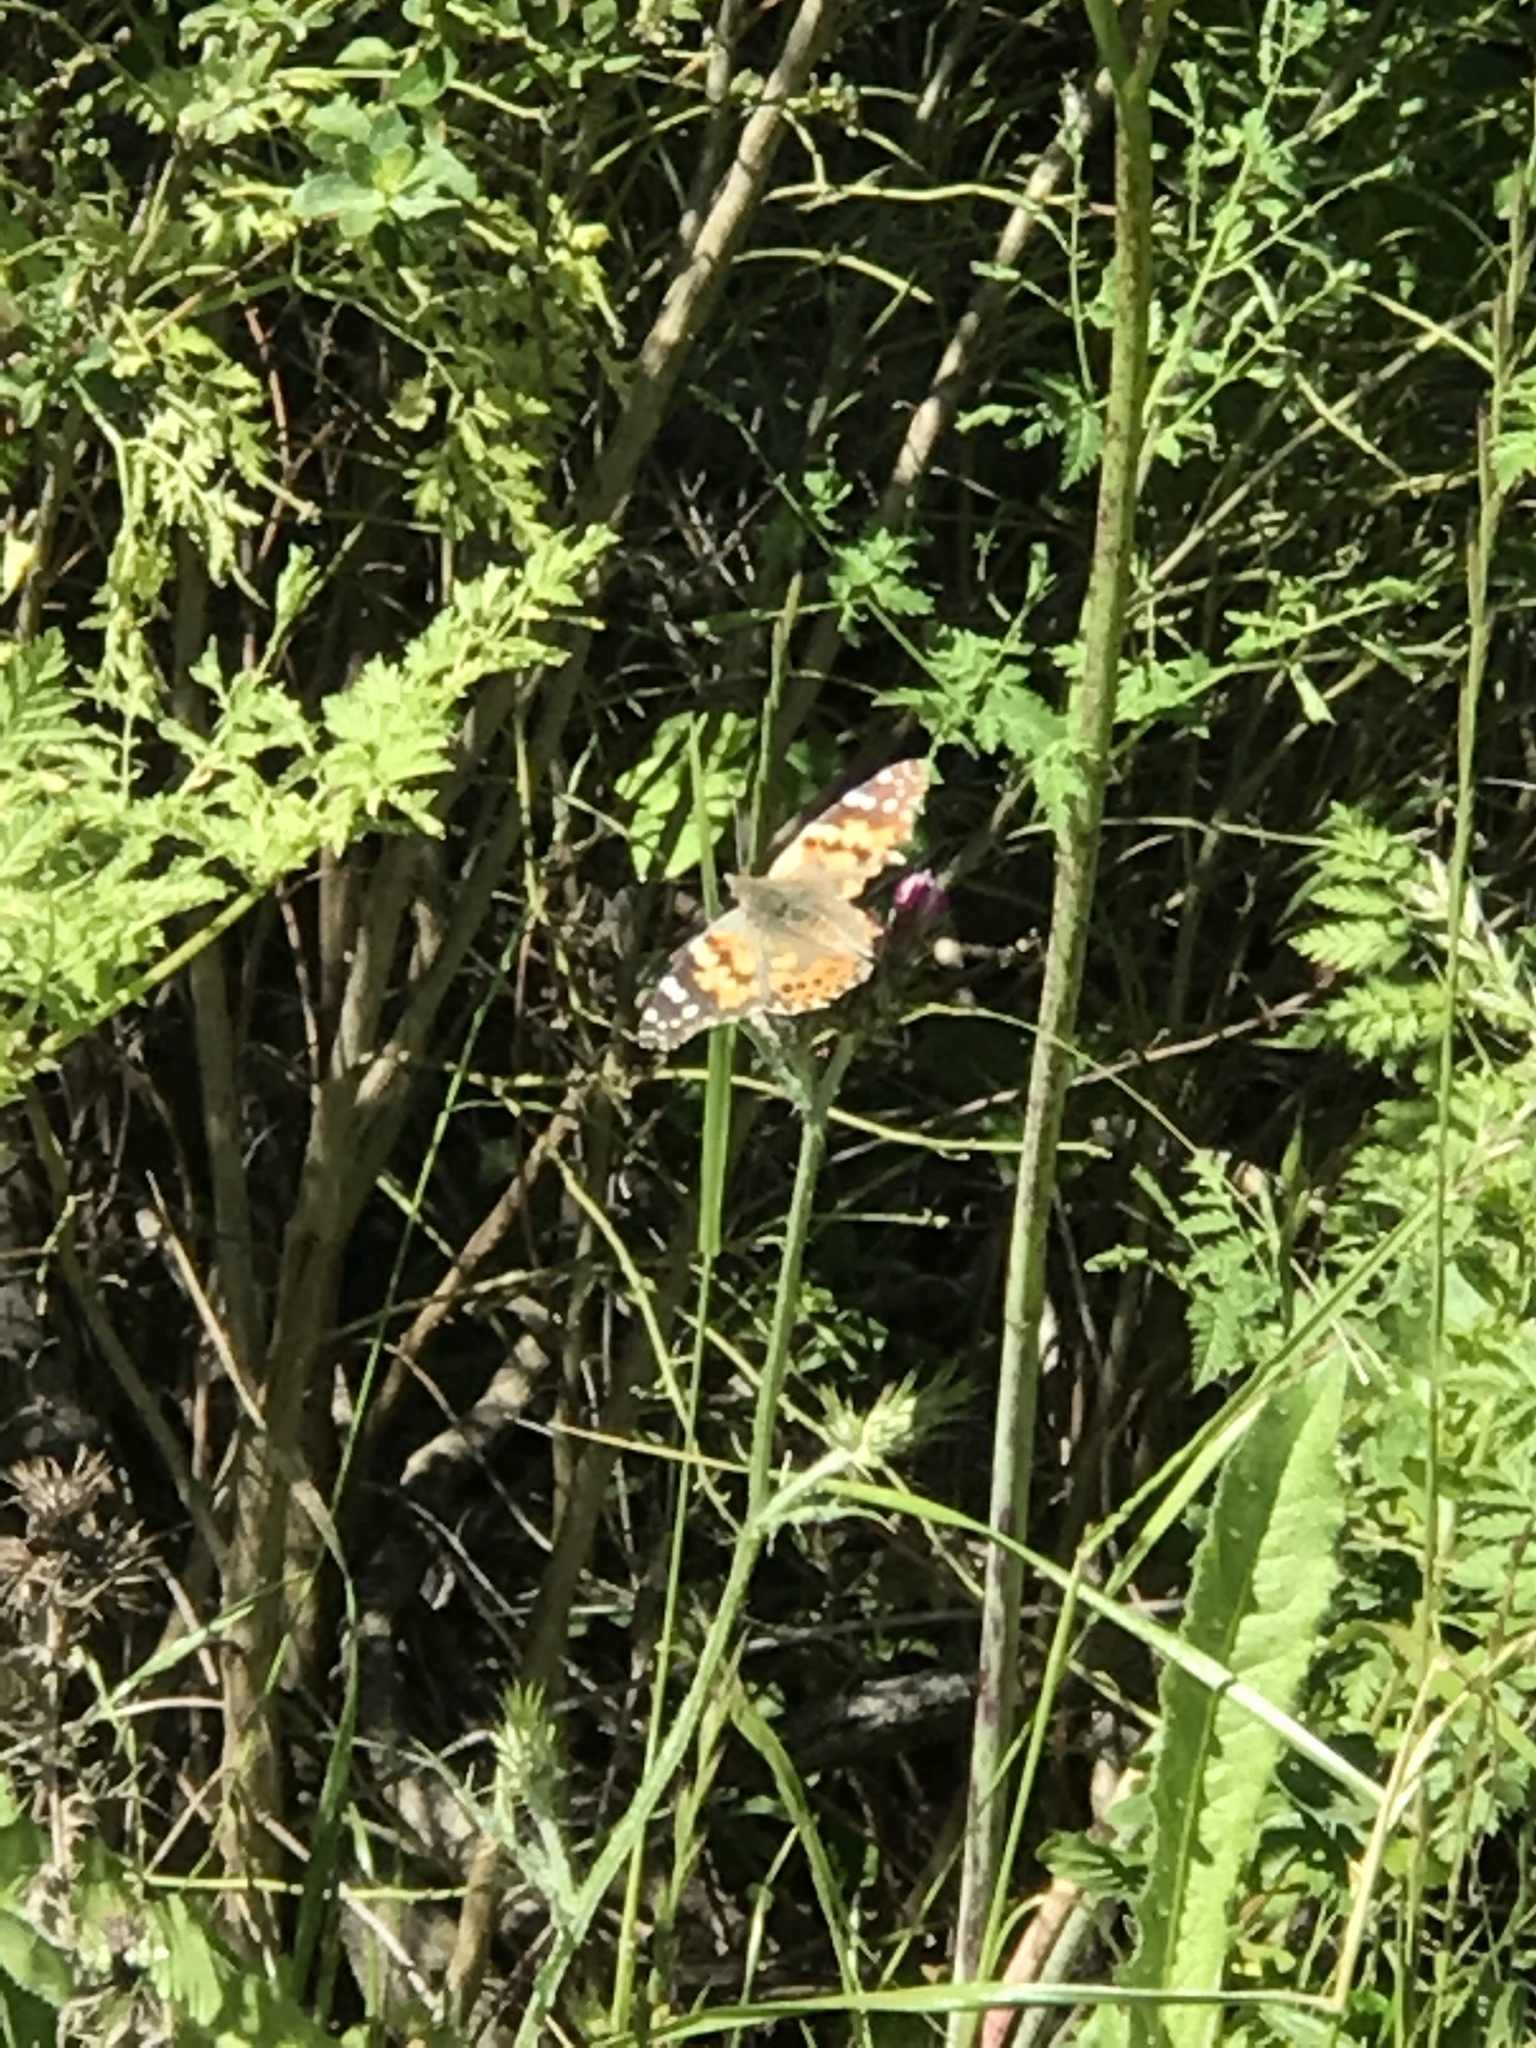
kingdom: Animalia
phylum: Arthropoda
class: Insecta
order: Lepidoptera
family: Nymphalidae
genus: Vanessa
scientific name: Vanessa cardui
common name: Painted lady
